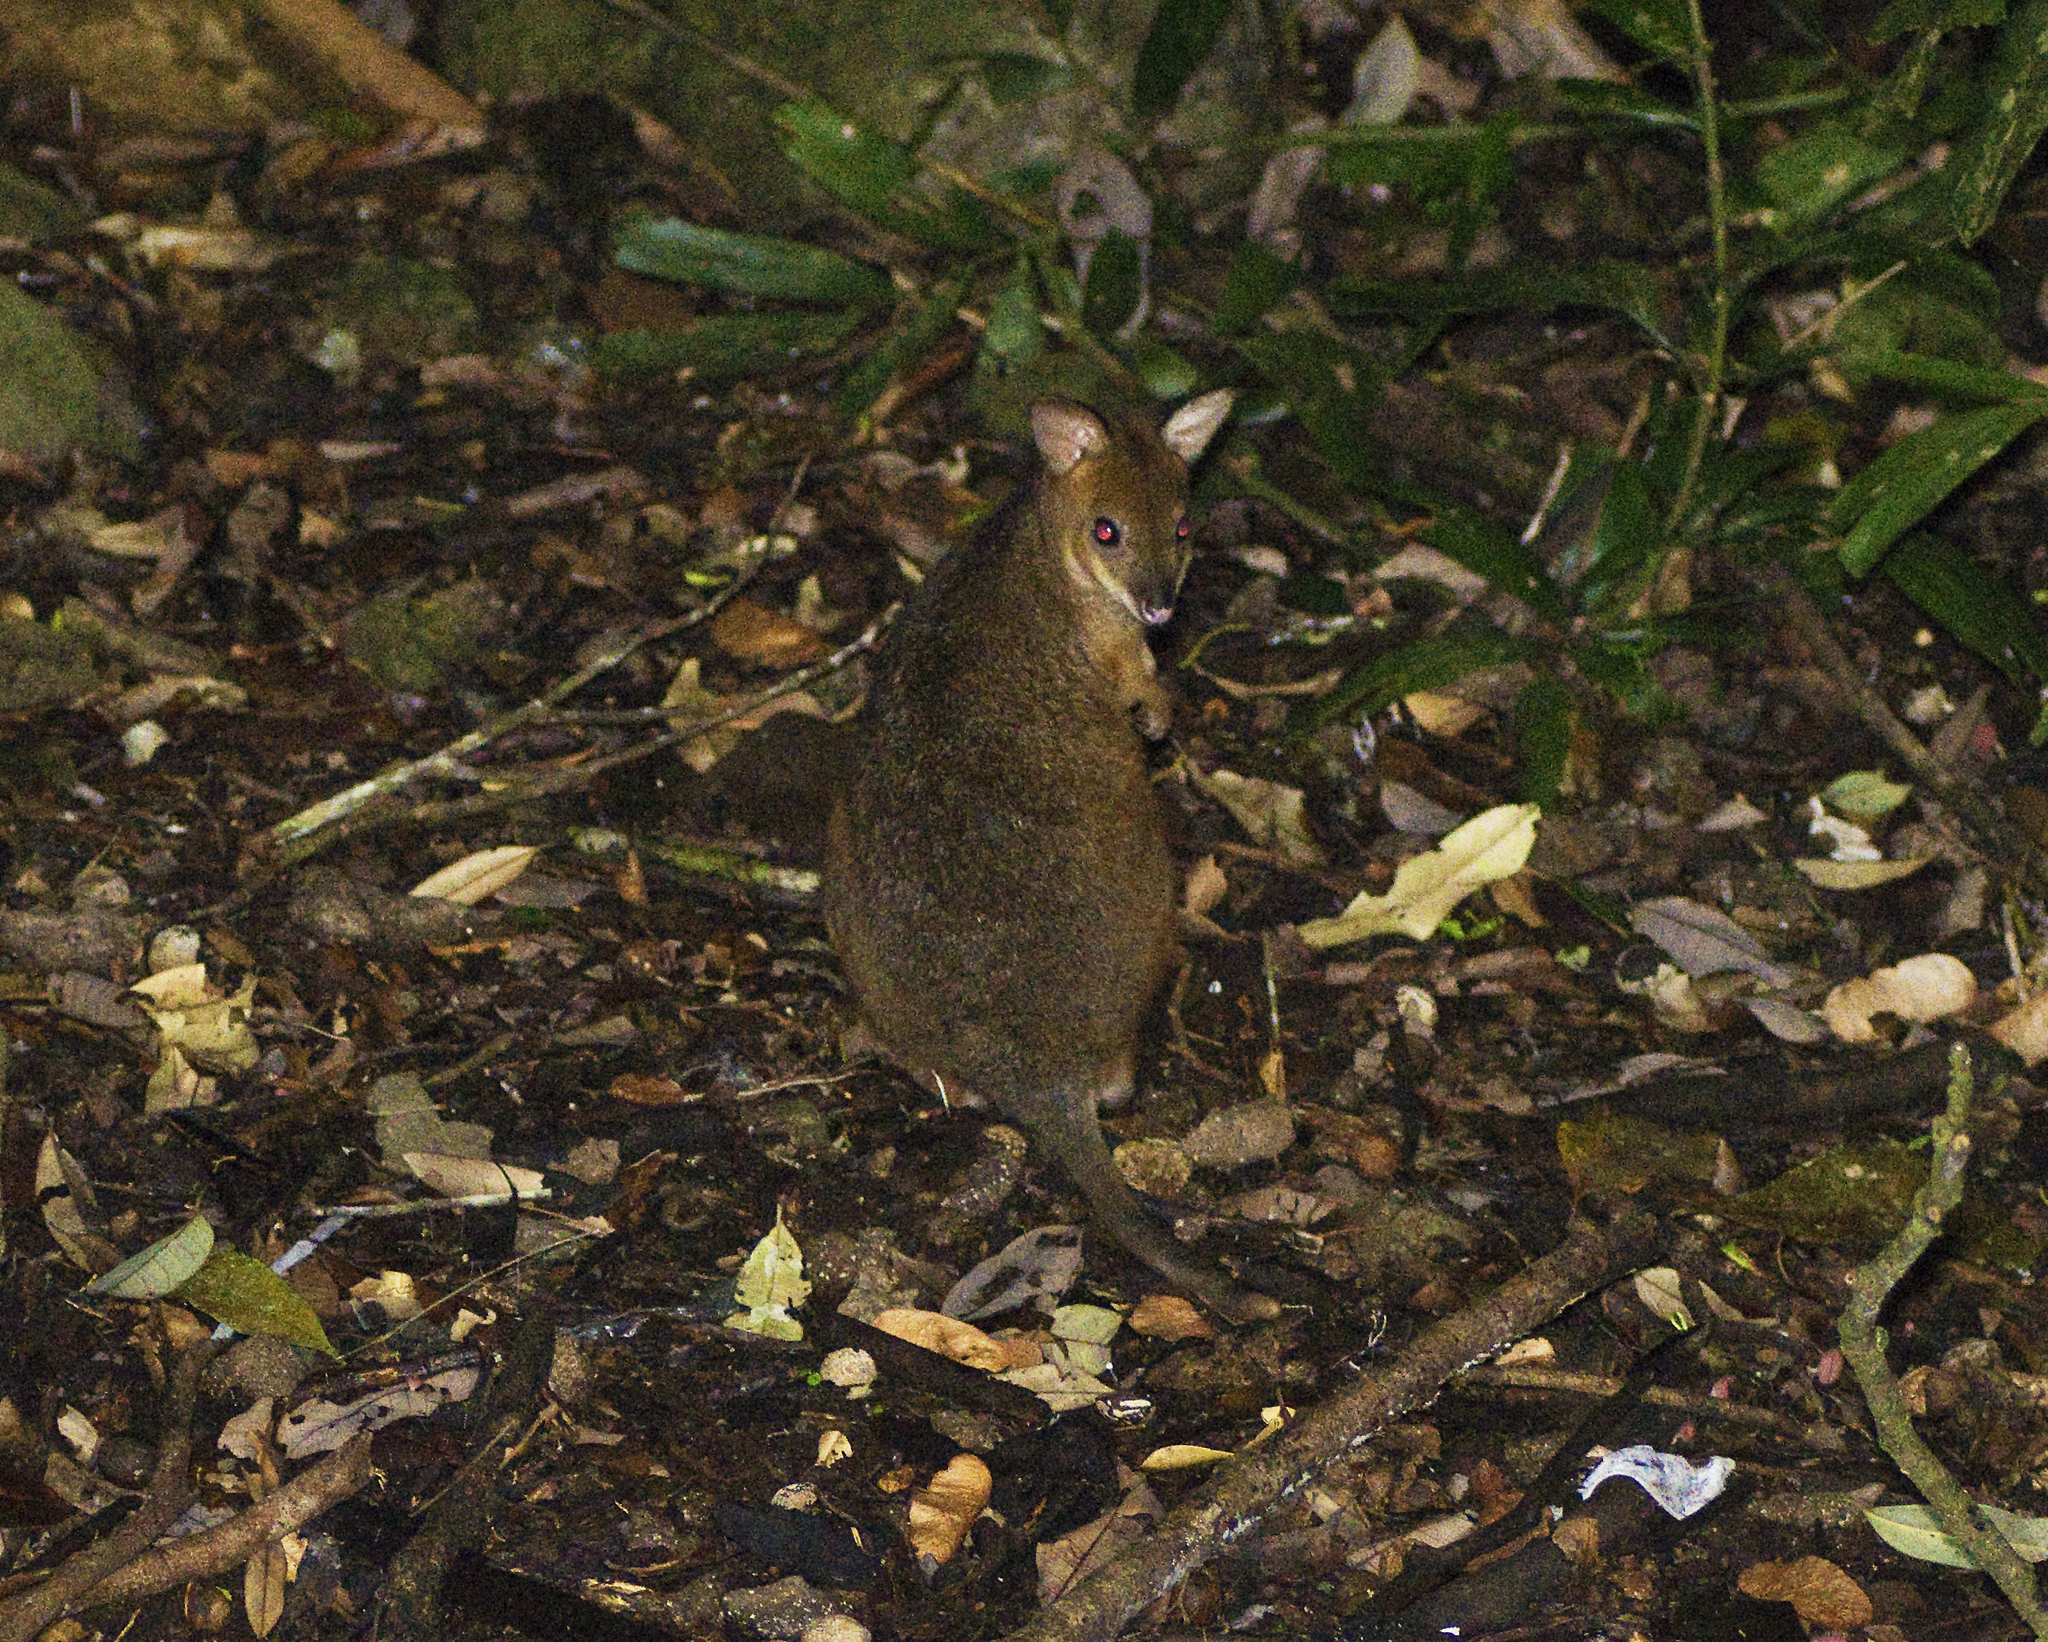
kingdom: Animalia
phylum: Chordata
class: Mammalia
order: Diprotodontia
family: Macropodidae
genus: Thylogale
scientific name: Thylogale stigmatica
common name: Red-legged pademelon
